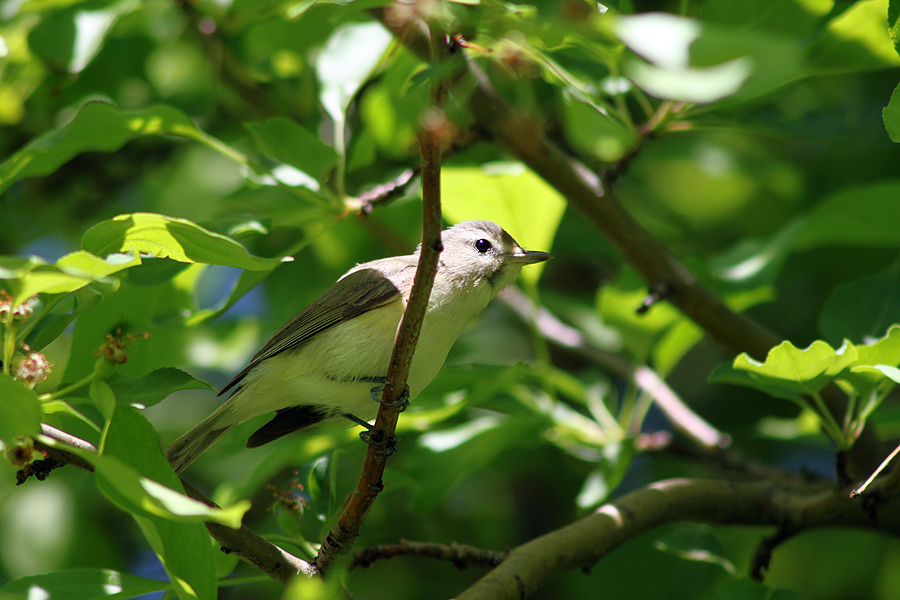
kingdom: Animalia
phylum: Chordata
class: Aves
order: Passeriformes
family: Vireonidae
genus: Vireo
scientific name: Vireo gilvus
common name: Warbling vireo
